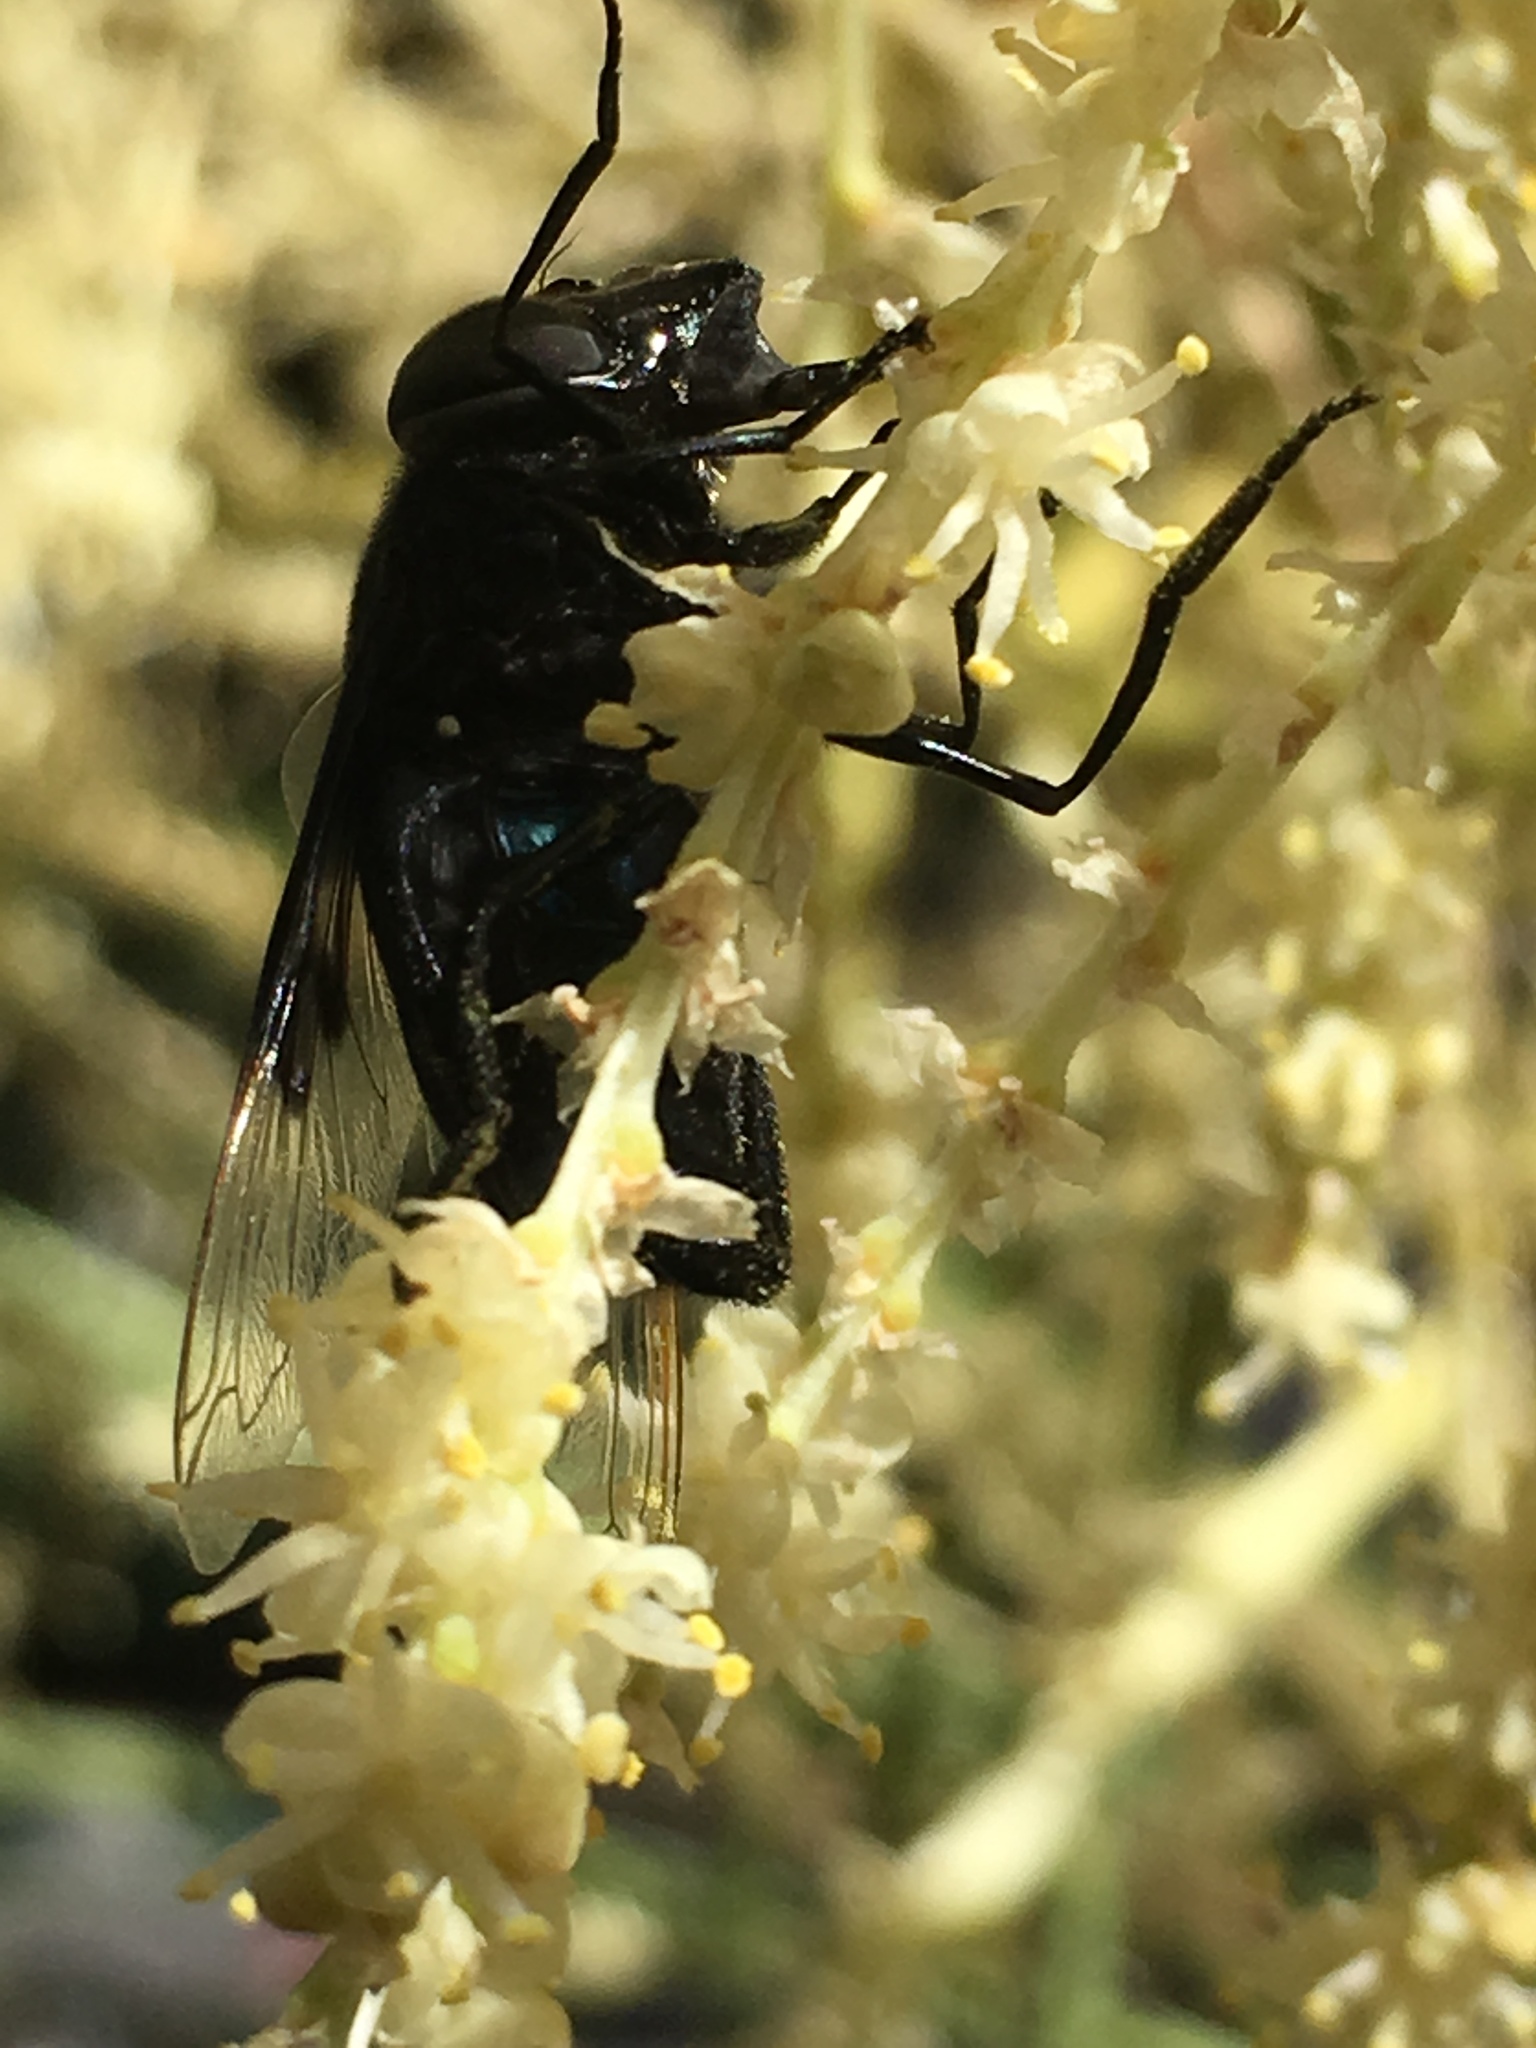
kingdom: Animalia
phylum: Arthropoda
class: Insecta
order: Diptera
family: Syrphidae
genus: Copestylum
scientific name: Copestylum
